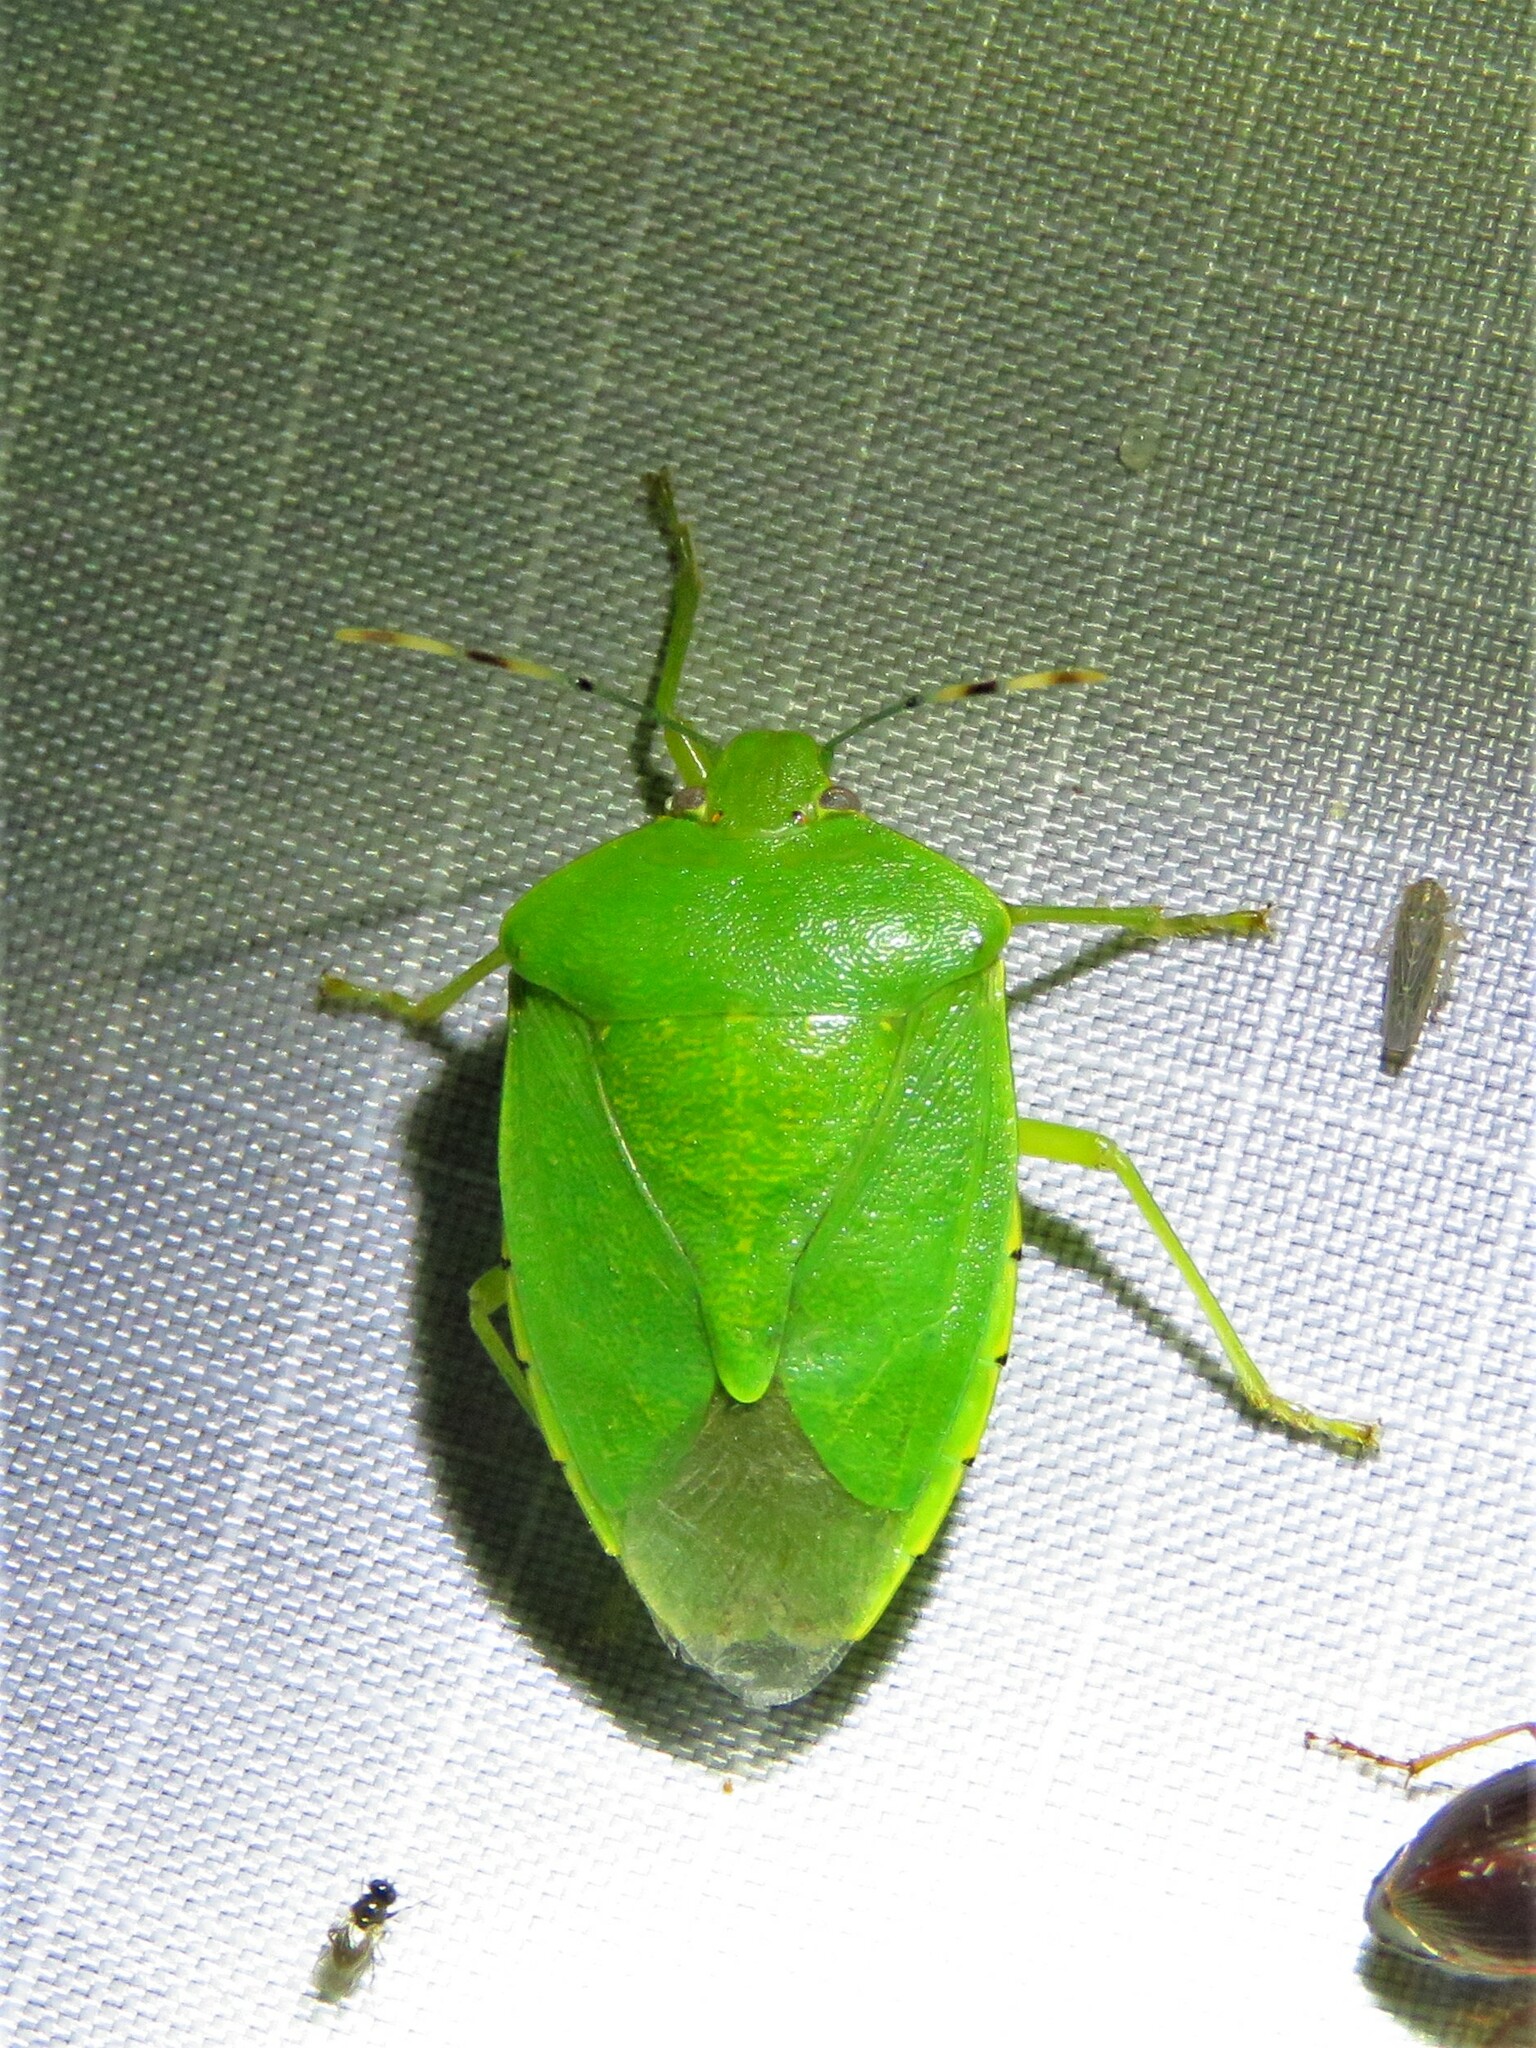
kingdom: Animalia
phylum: Arthropoda
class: Insecta
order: Hemiptera
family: Pentatomidae
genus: Chinavia
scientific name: Chinavia hilaris
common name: Green stink bug
